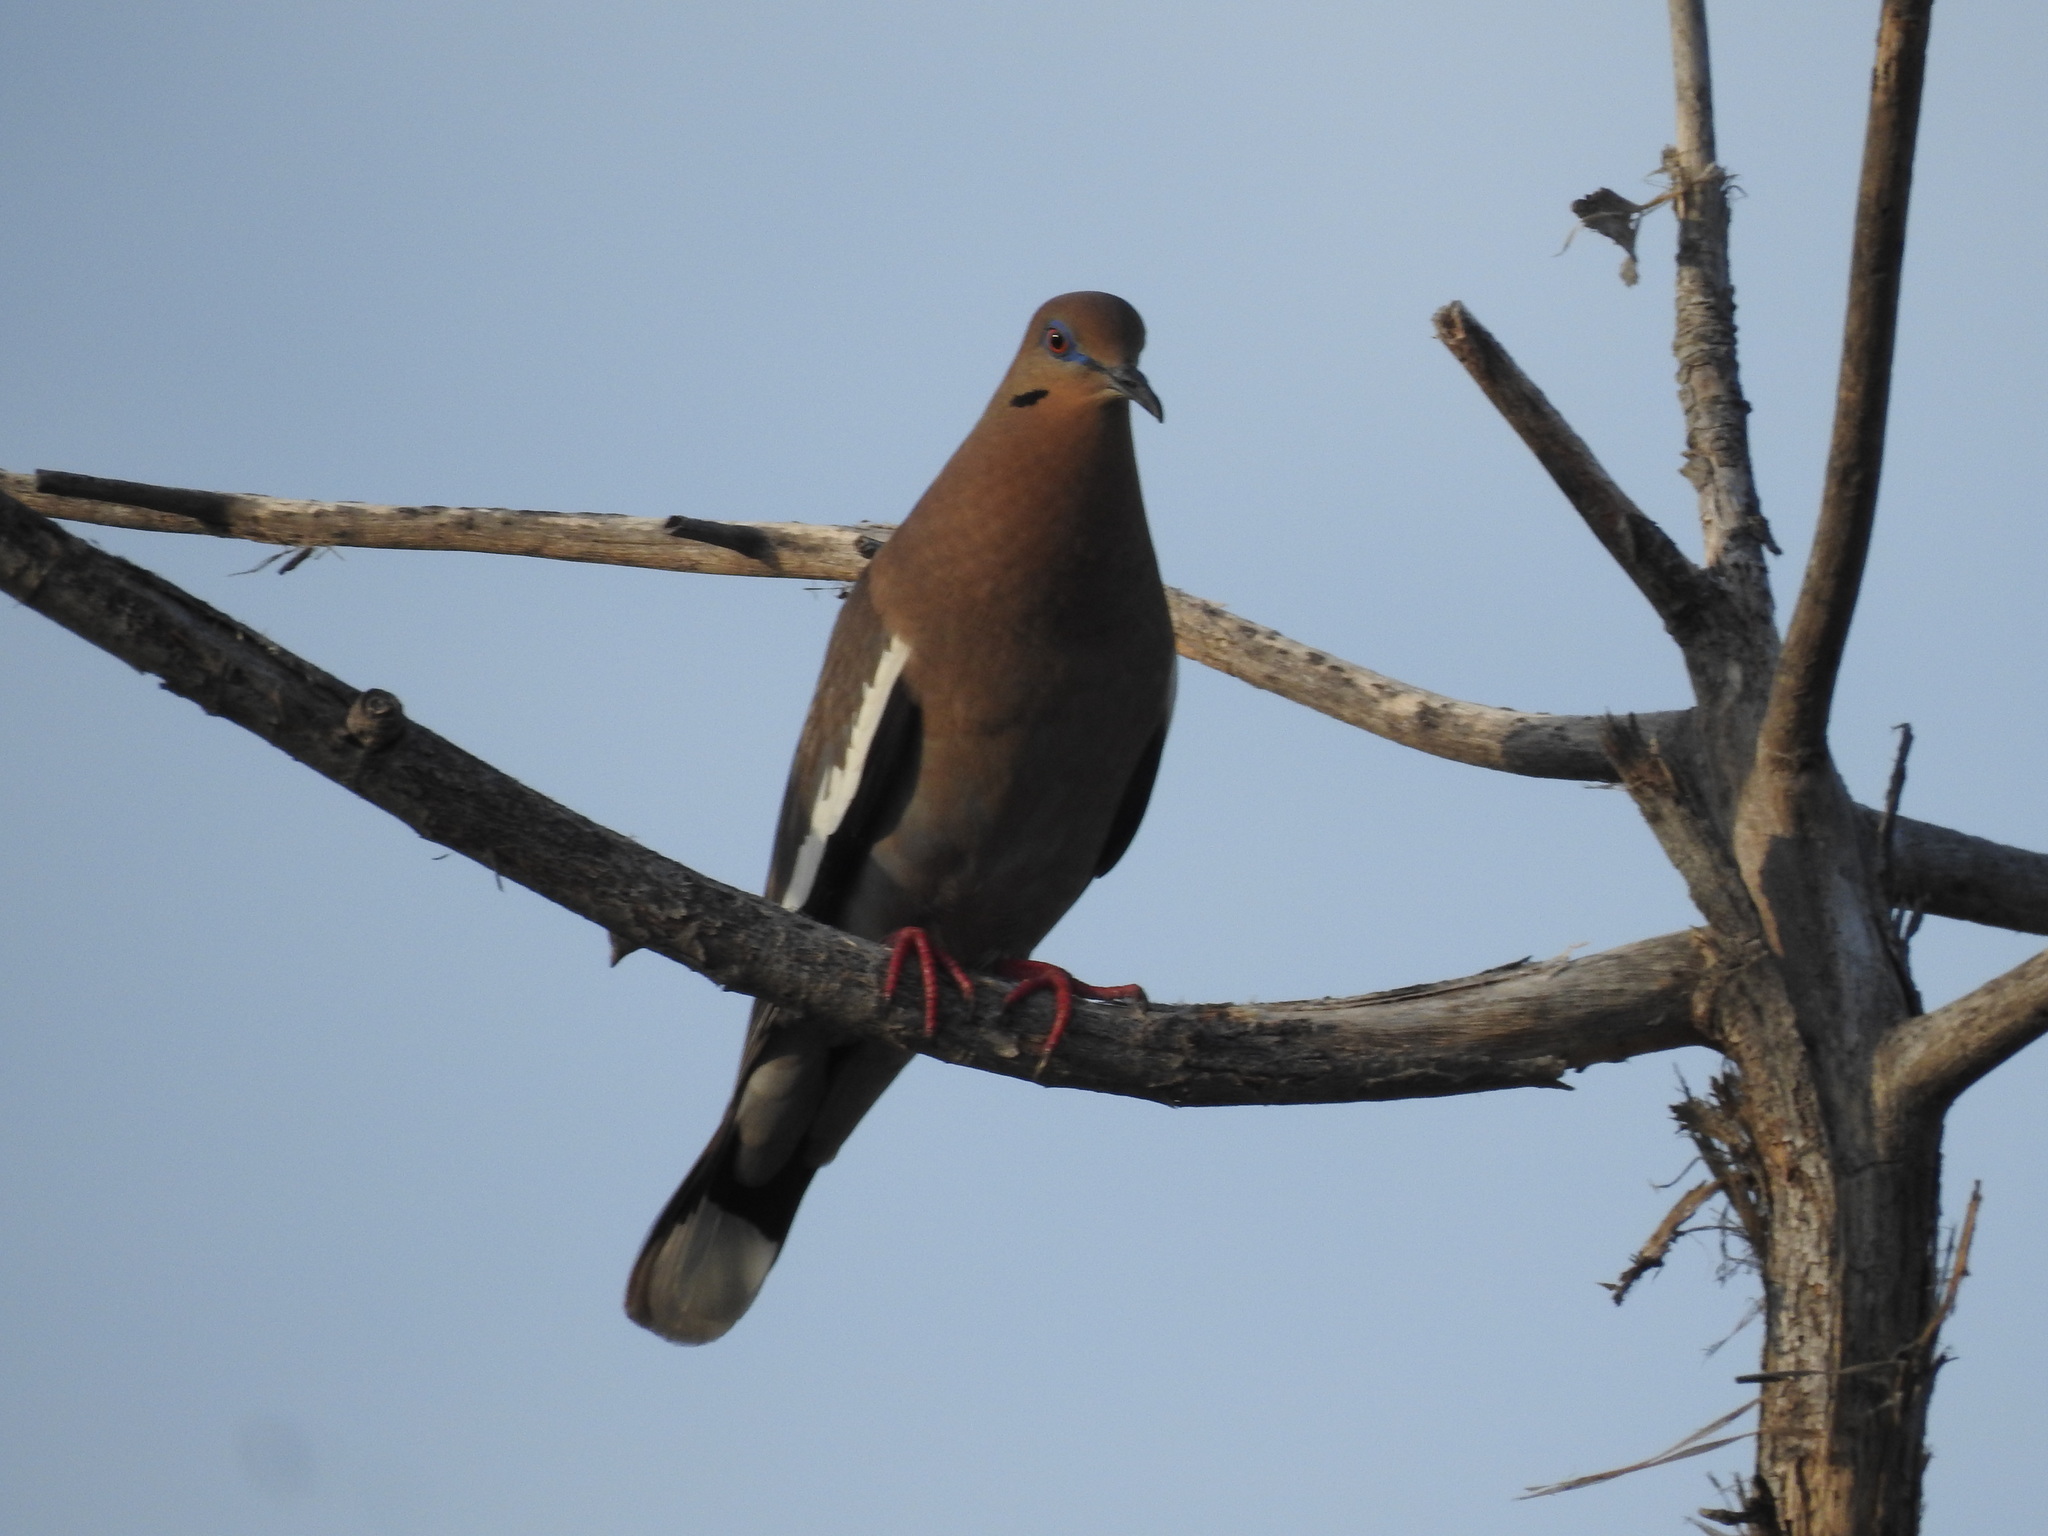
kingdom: Animalia
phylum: Chordata
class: Aves
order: Columbiformes
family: Columbidae
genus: Zenaida
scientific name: Zenaida asiatica
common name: White-winged dove
